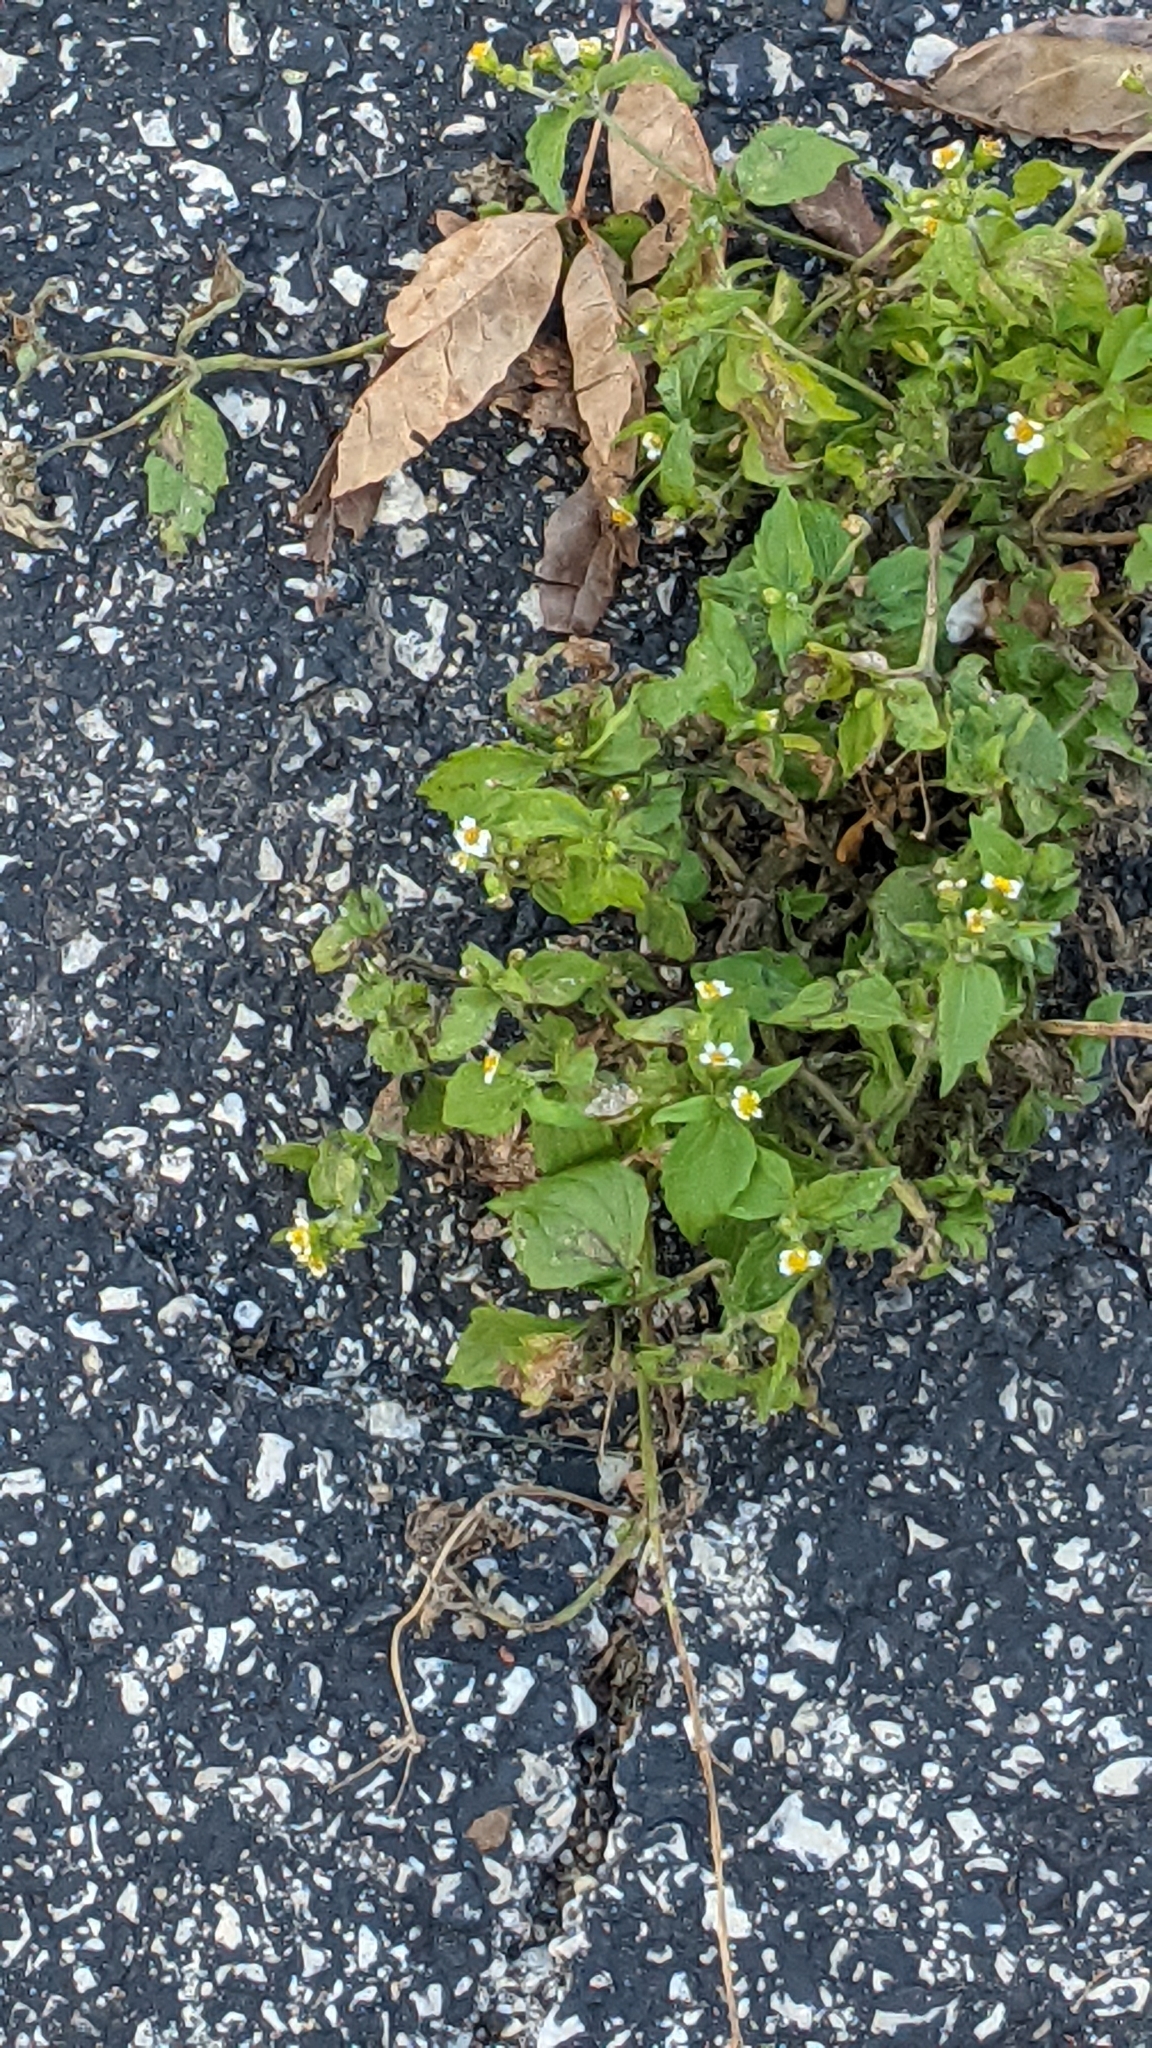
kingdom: Plantae
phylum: Tracheophyta
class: Magnoliopsida
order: Asterales
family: Asteraceae
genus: Galinsoga
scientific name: Galinsoga quadriradiata
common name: Shaggy soldier
